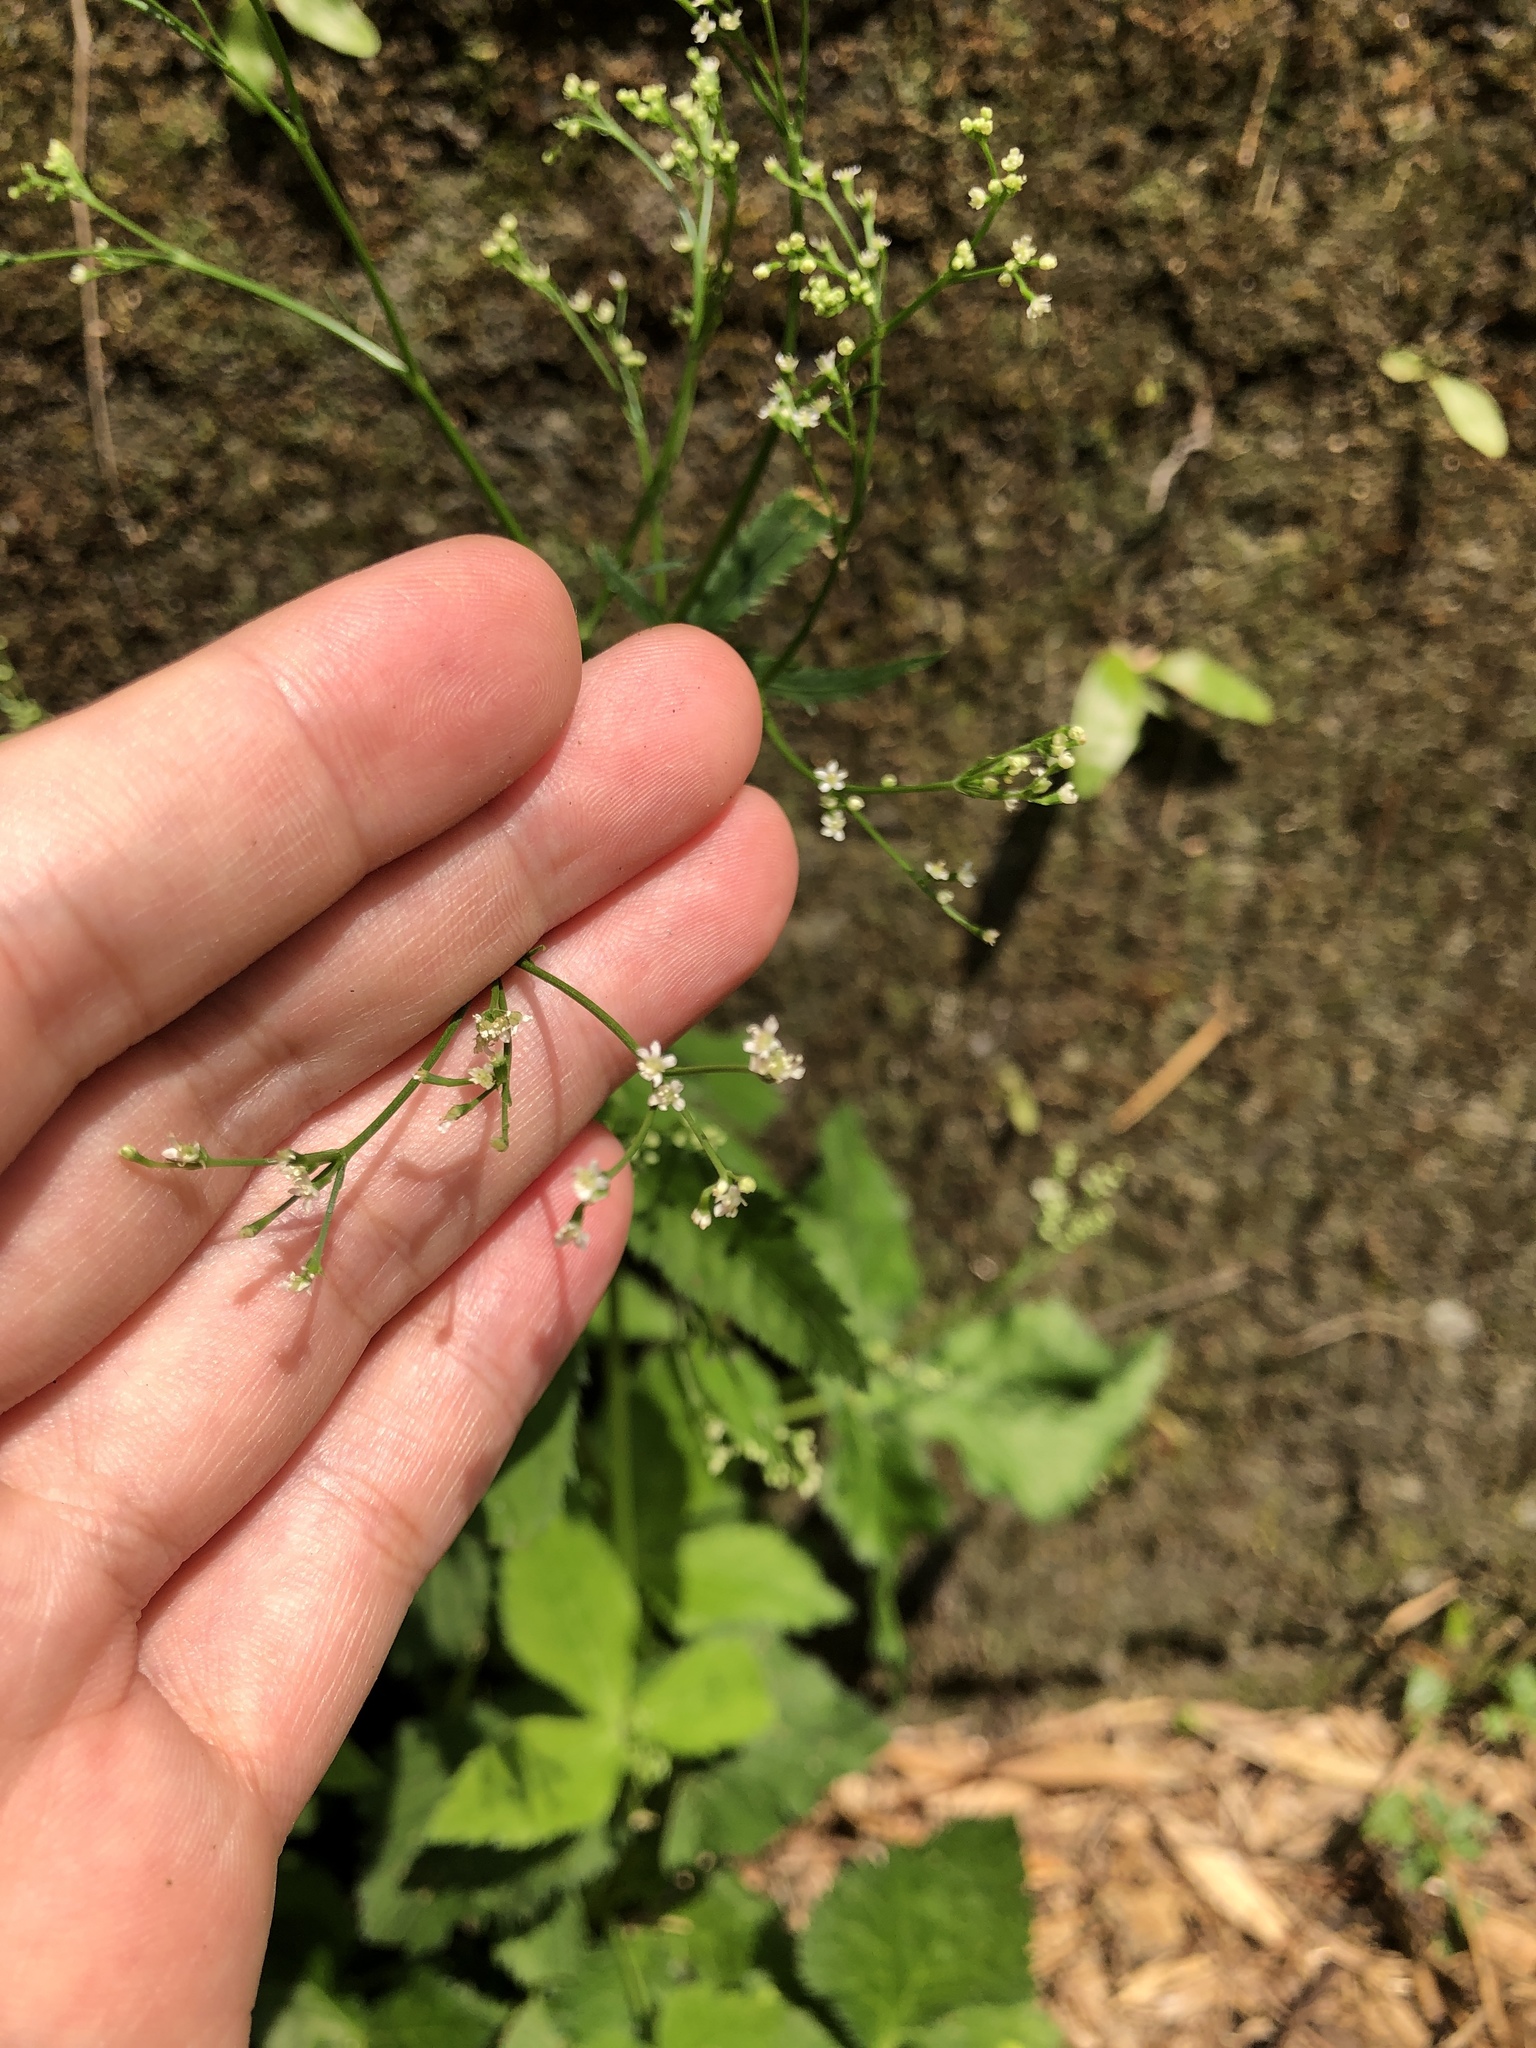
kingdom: Plantae
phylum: Tracheophyta
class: Magnoliopsida
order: Apiales
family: Apiaceae
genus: Cryptotaenia
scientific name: Cryptotaenia japonica
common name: Japanese cryptotaenia
